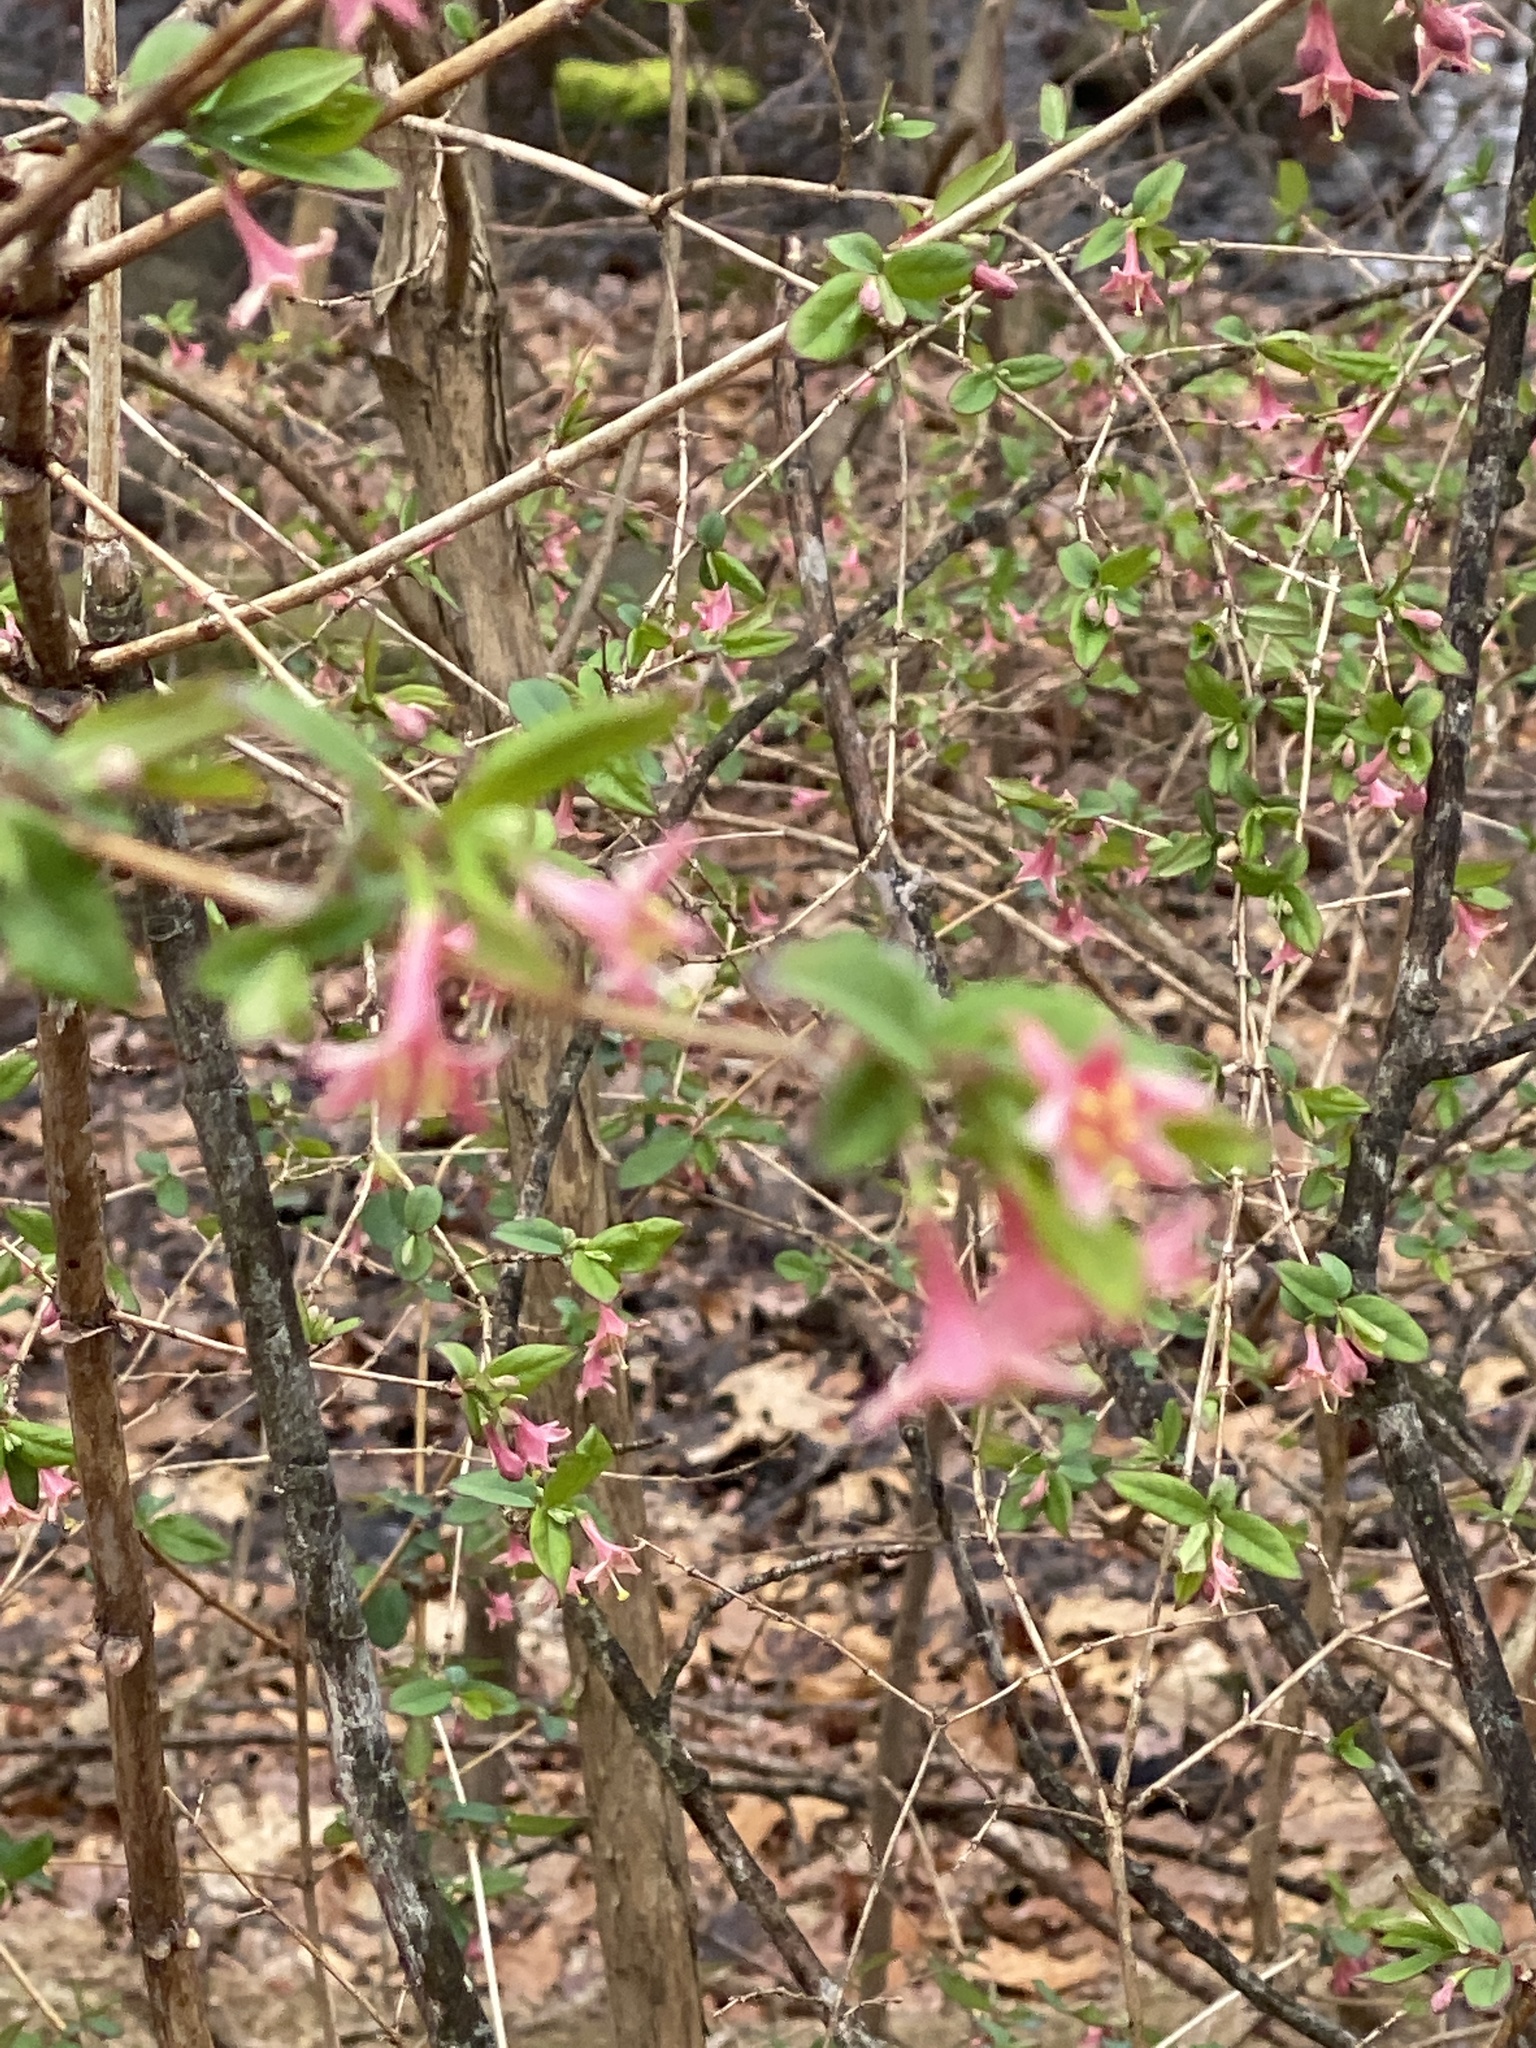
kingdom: Plantae
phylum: Tracheophyta
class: Magnoliopsida
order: Dipsacales
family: Caprifoliaceae
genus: Lonicera
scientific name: Lonicera gracilipes
